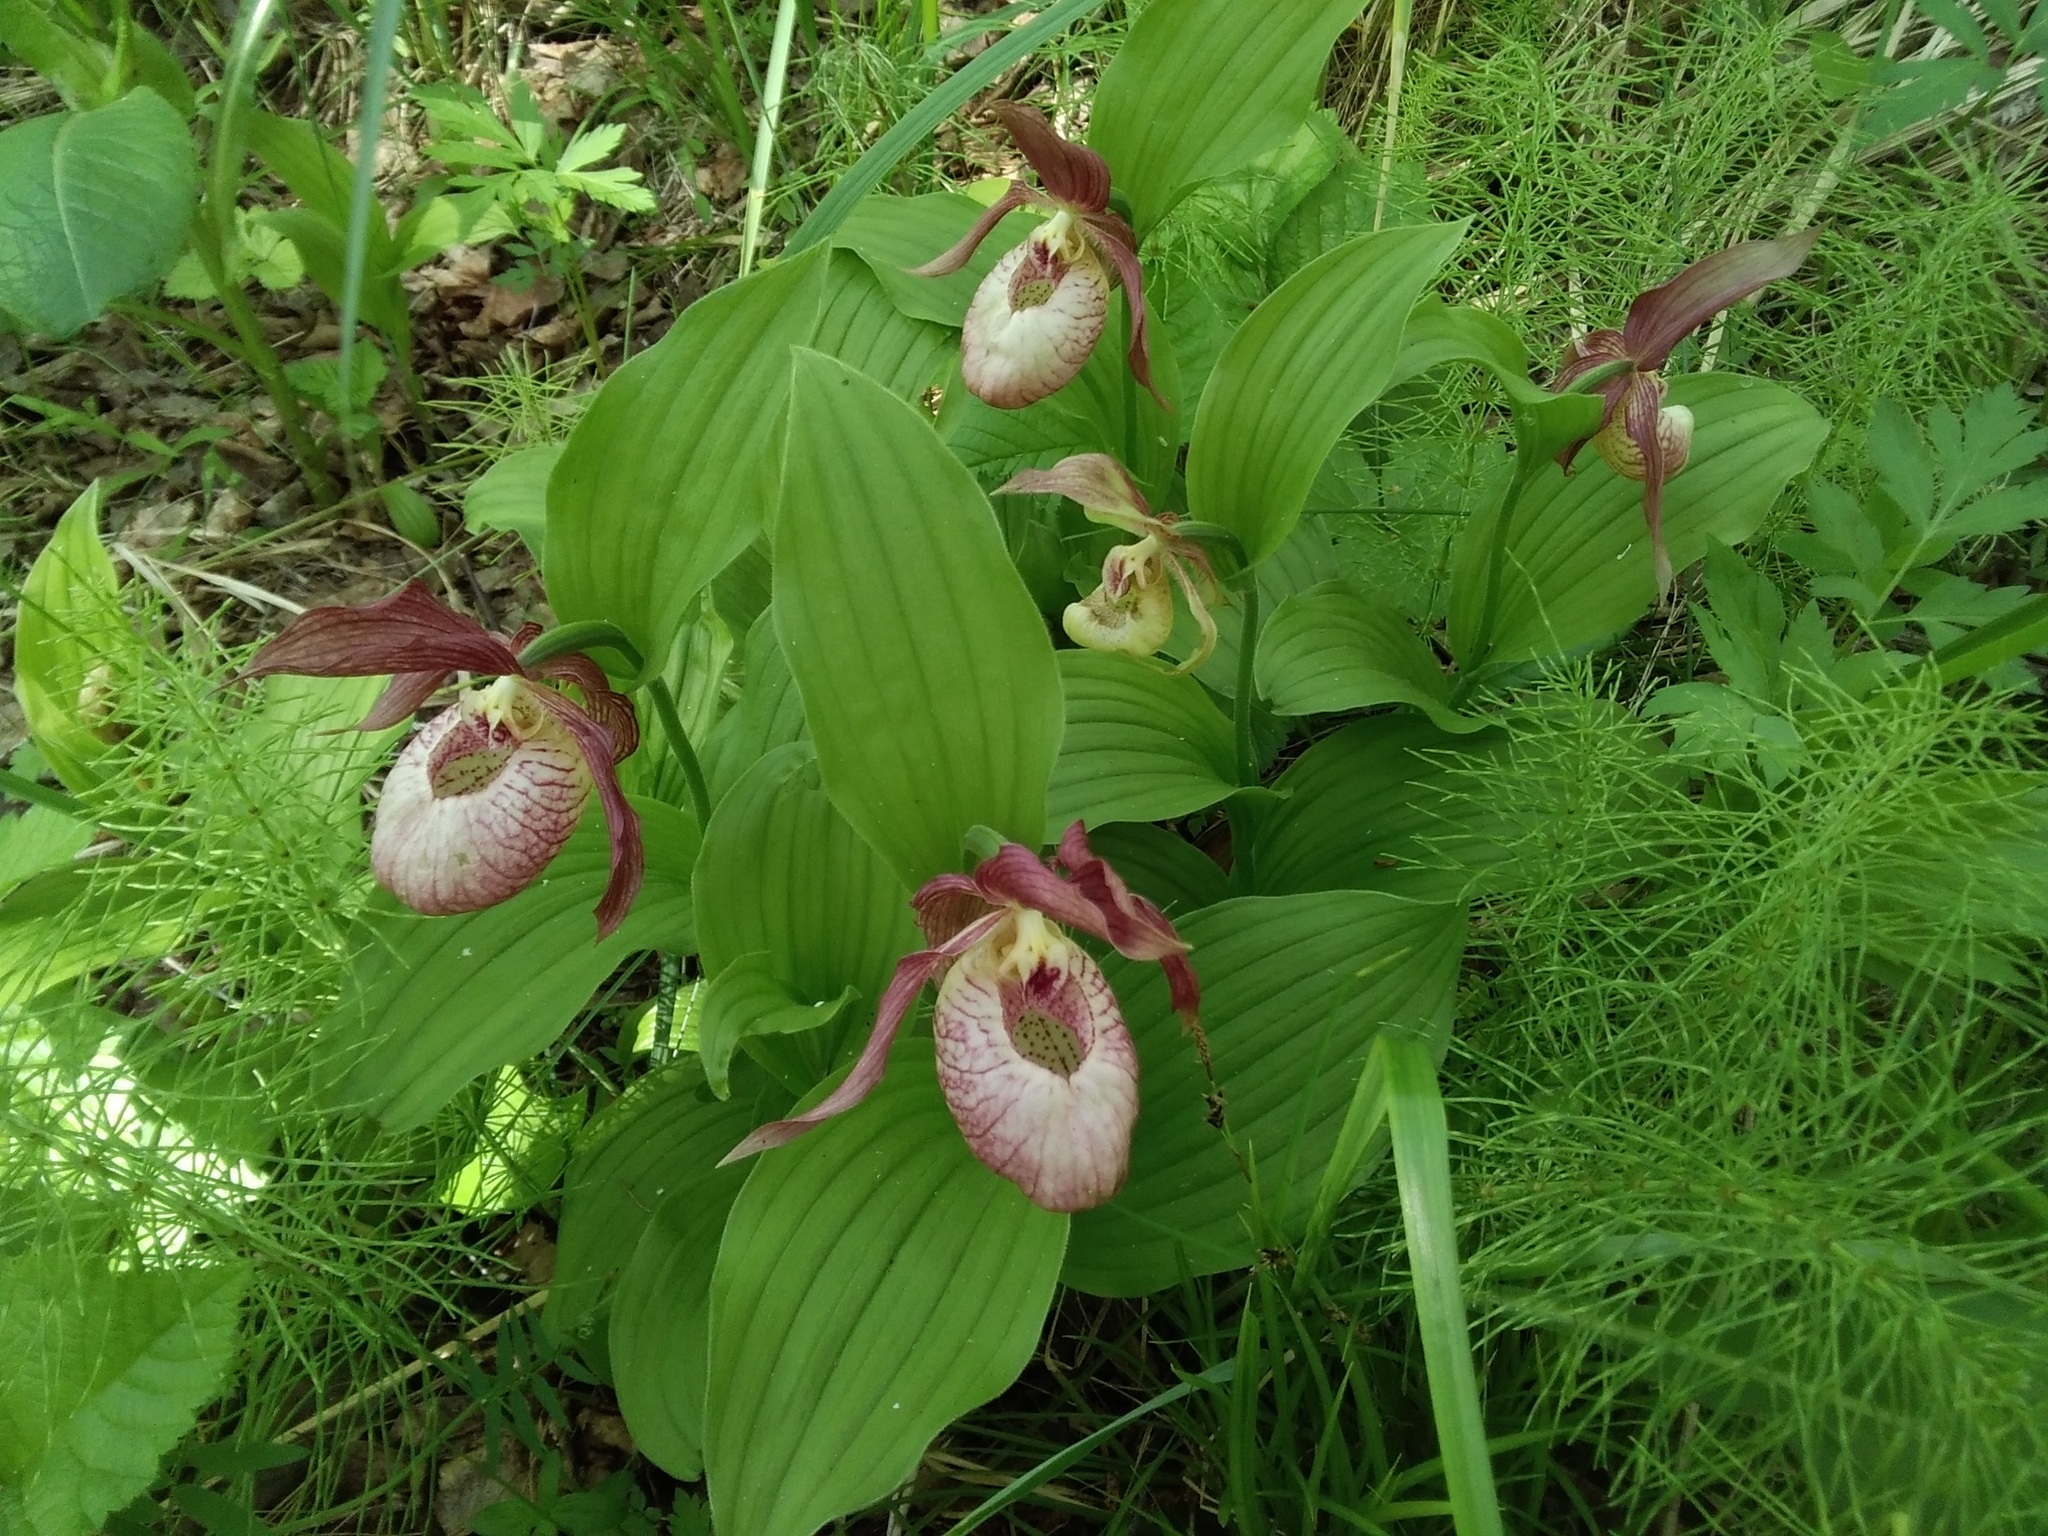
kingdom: Plantae
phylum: Tracheophyta
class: Liliopsida
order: Asparagales
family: Orchidaceae
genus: Cypripedium
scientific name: Cypripedium ventricosum
